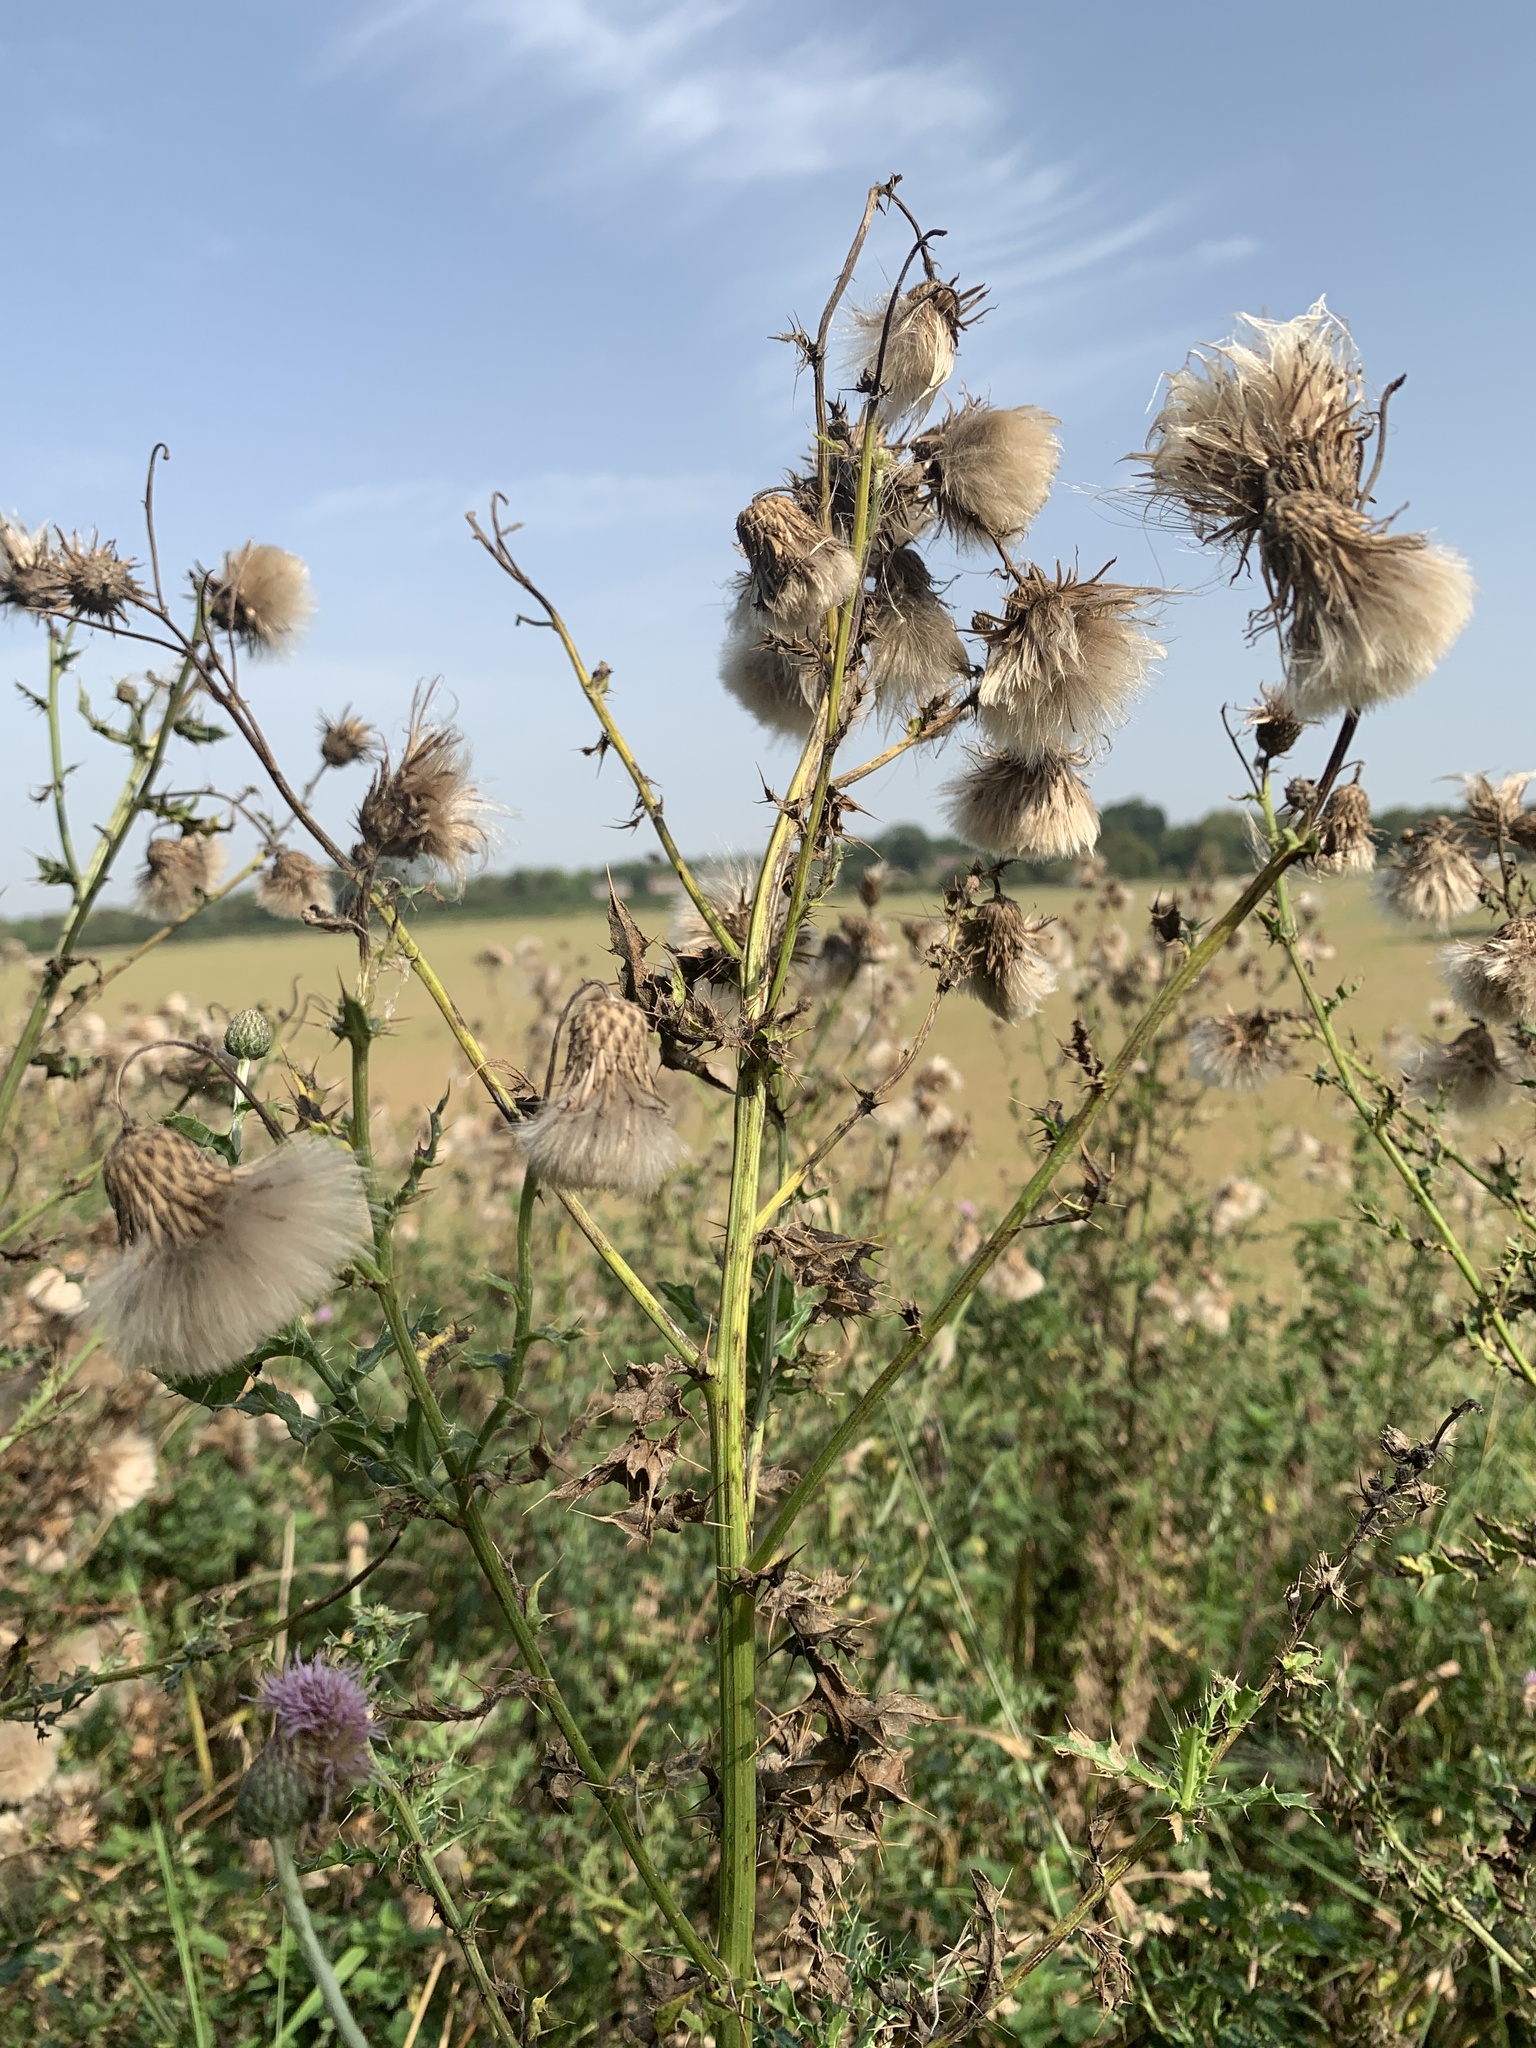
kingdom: Plantae
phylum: Tracheophyta
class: Magnoliopsida
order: Asterales
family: Asteraceae
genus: Cirsium
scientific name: Cirsium arvense
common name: Creeping thistle
